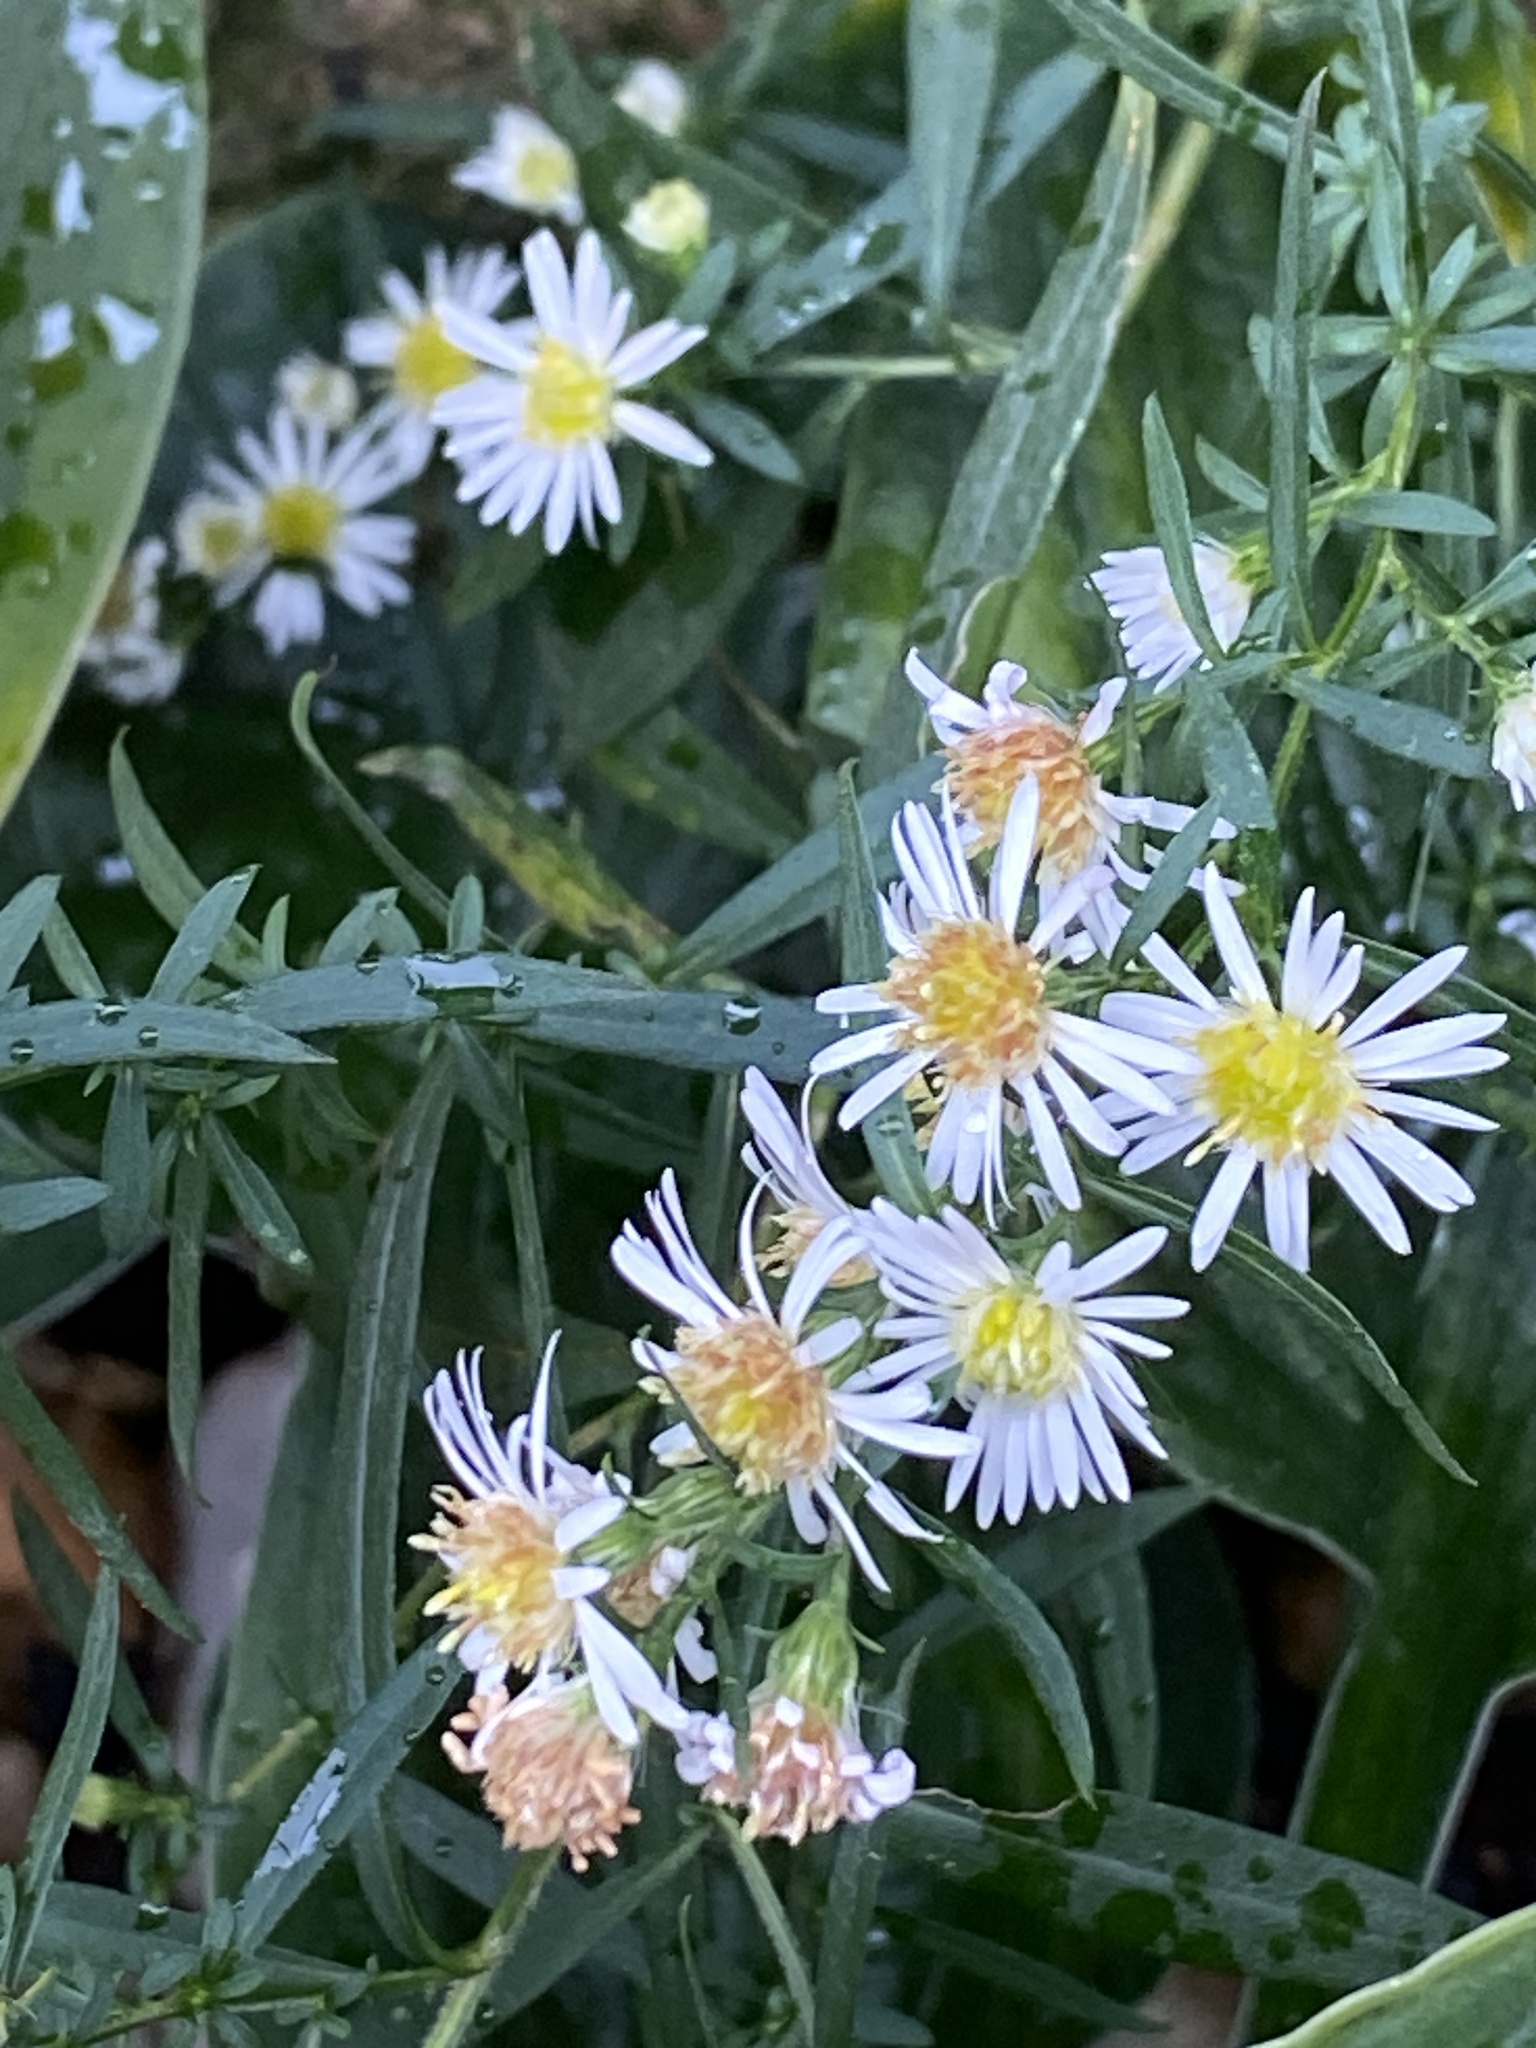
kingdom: Plantae
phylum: Tracheophyta
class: Magnoliopsida
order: Asterales
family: Asteraceae
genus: Symphyotrichum
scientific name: Symphyotrichum lanceolatum
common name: Panicled aster
